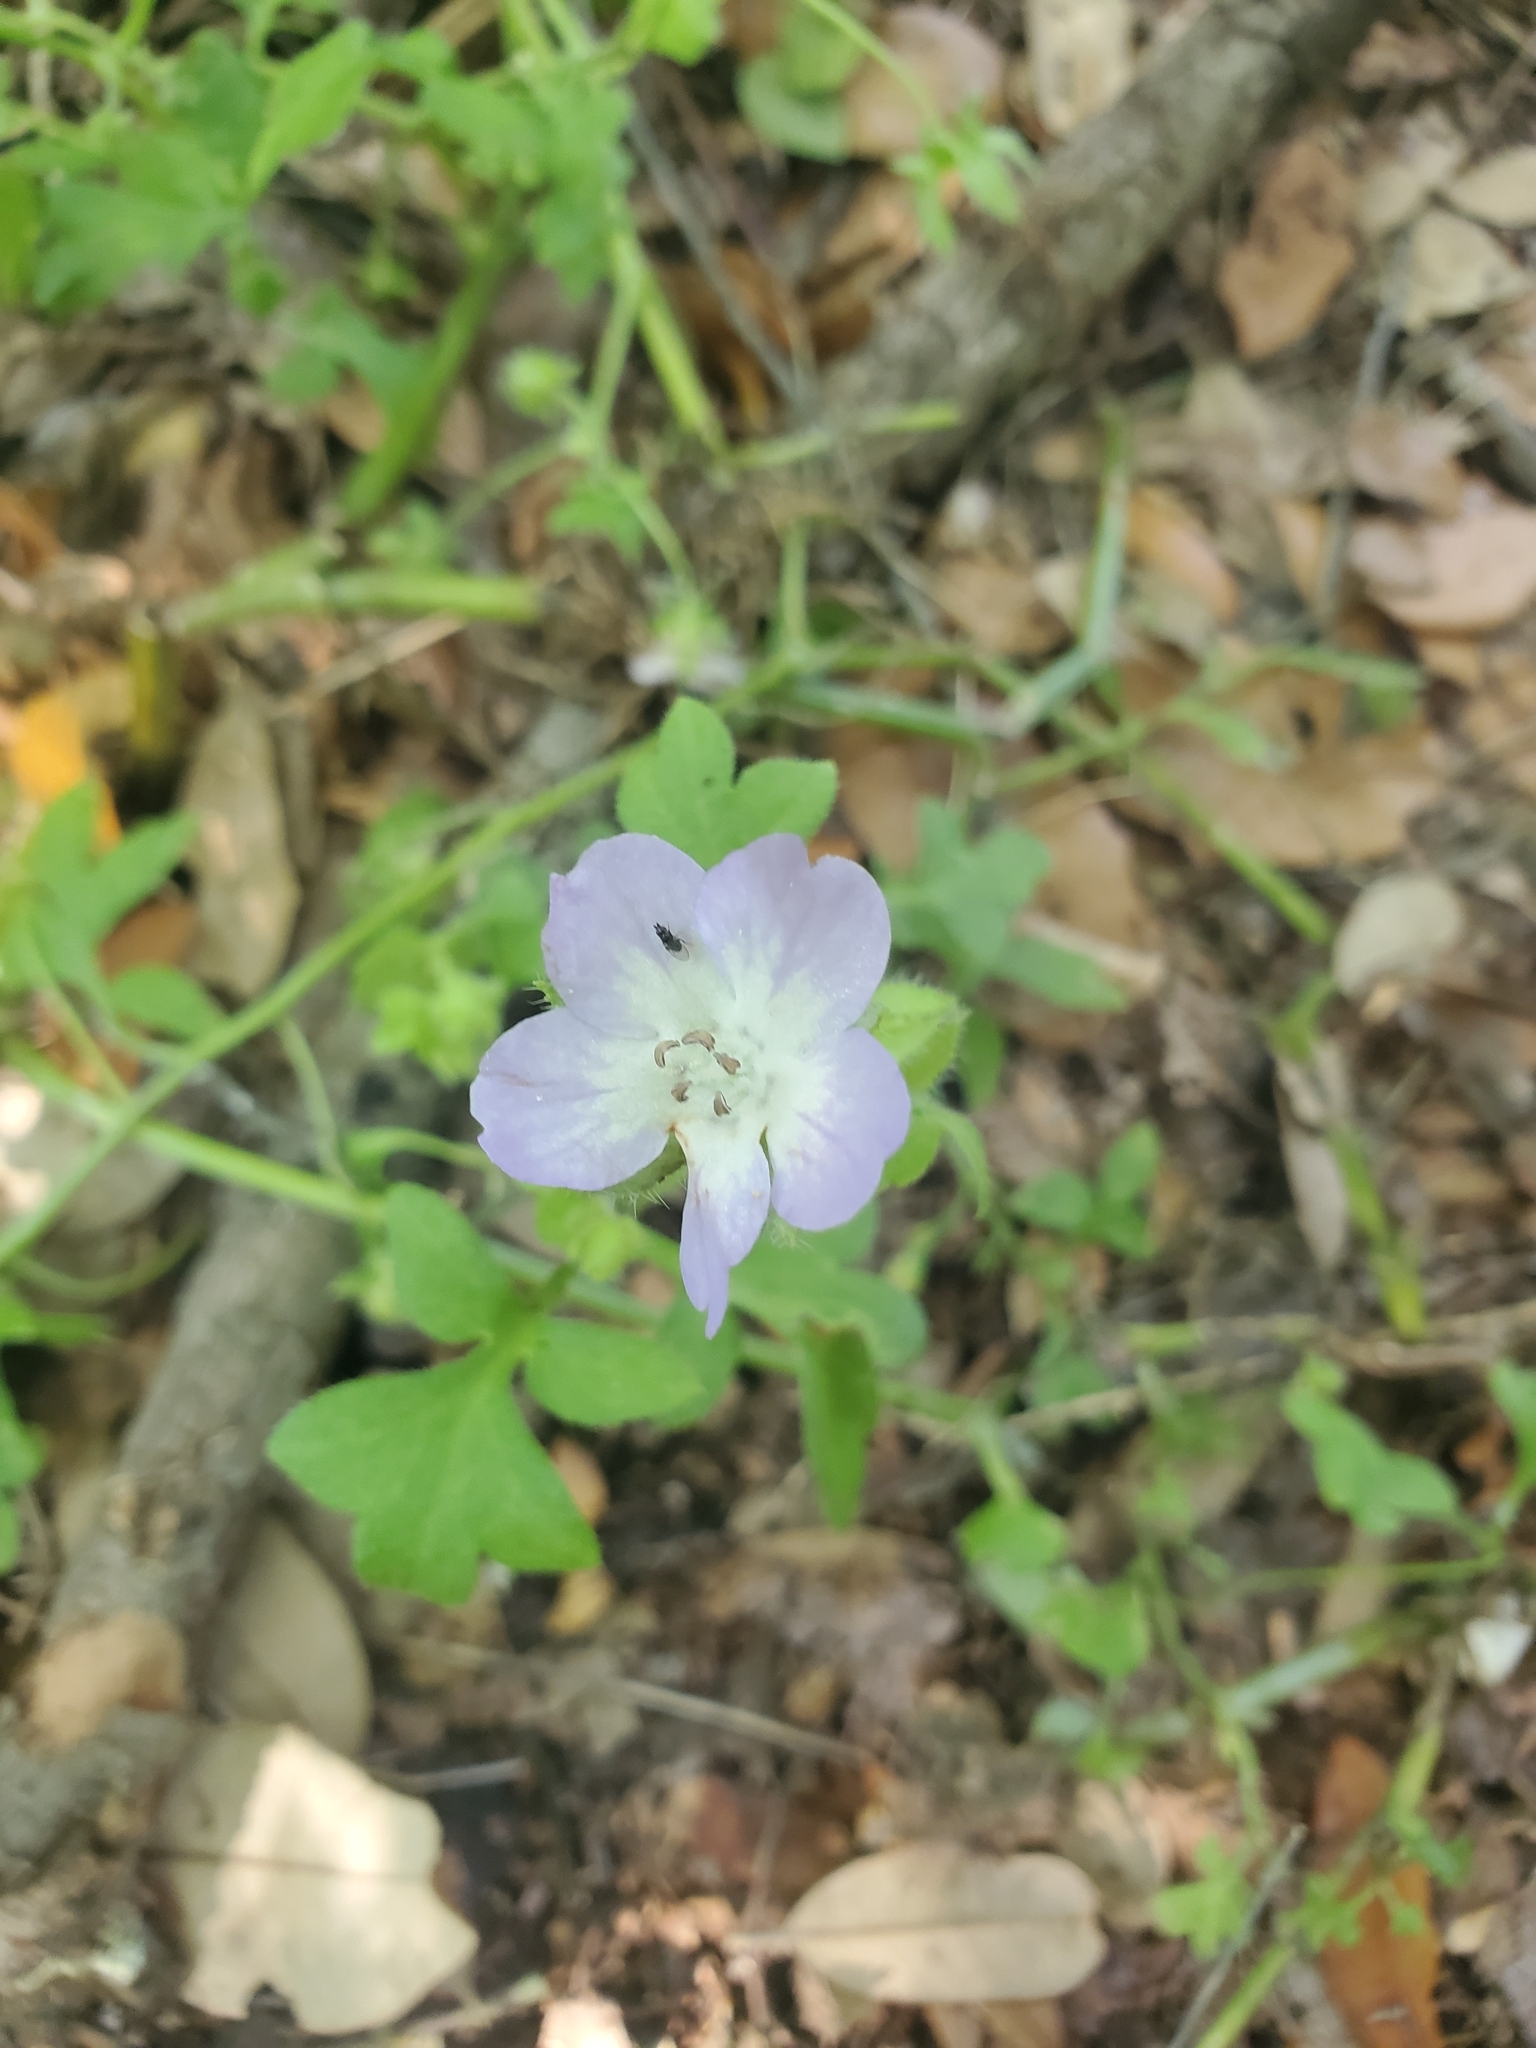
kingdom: Plantae
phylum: Tracheophyta
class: Magnoliopsida
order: Boraginales
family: Hydrophyllaceae
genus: Nemophila
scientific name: Nemophila phacelioides
